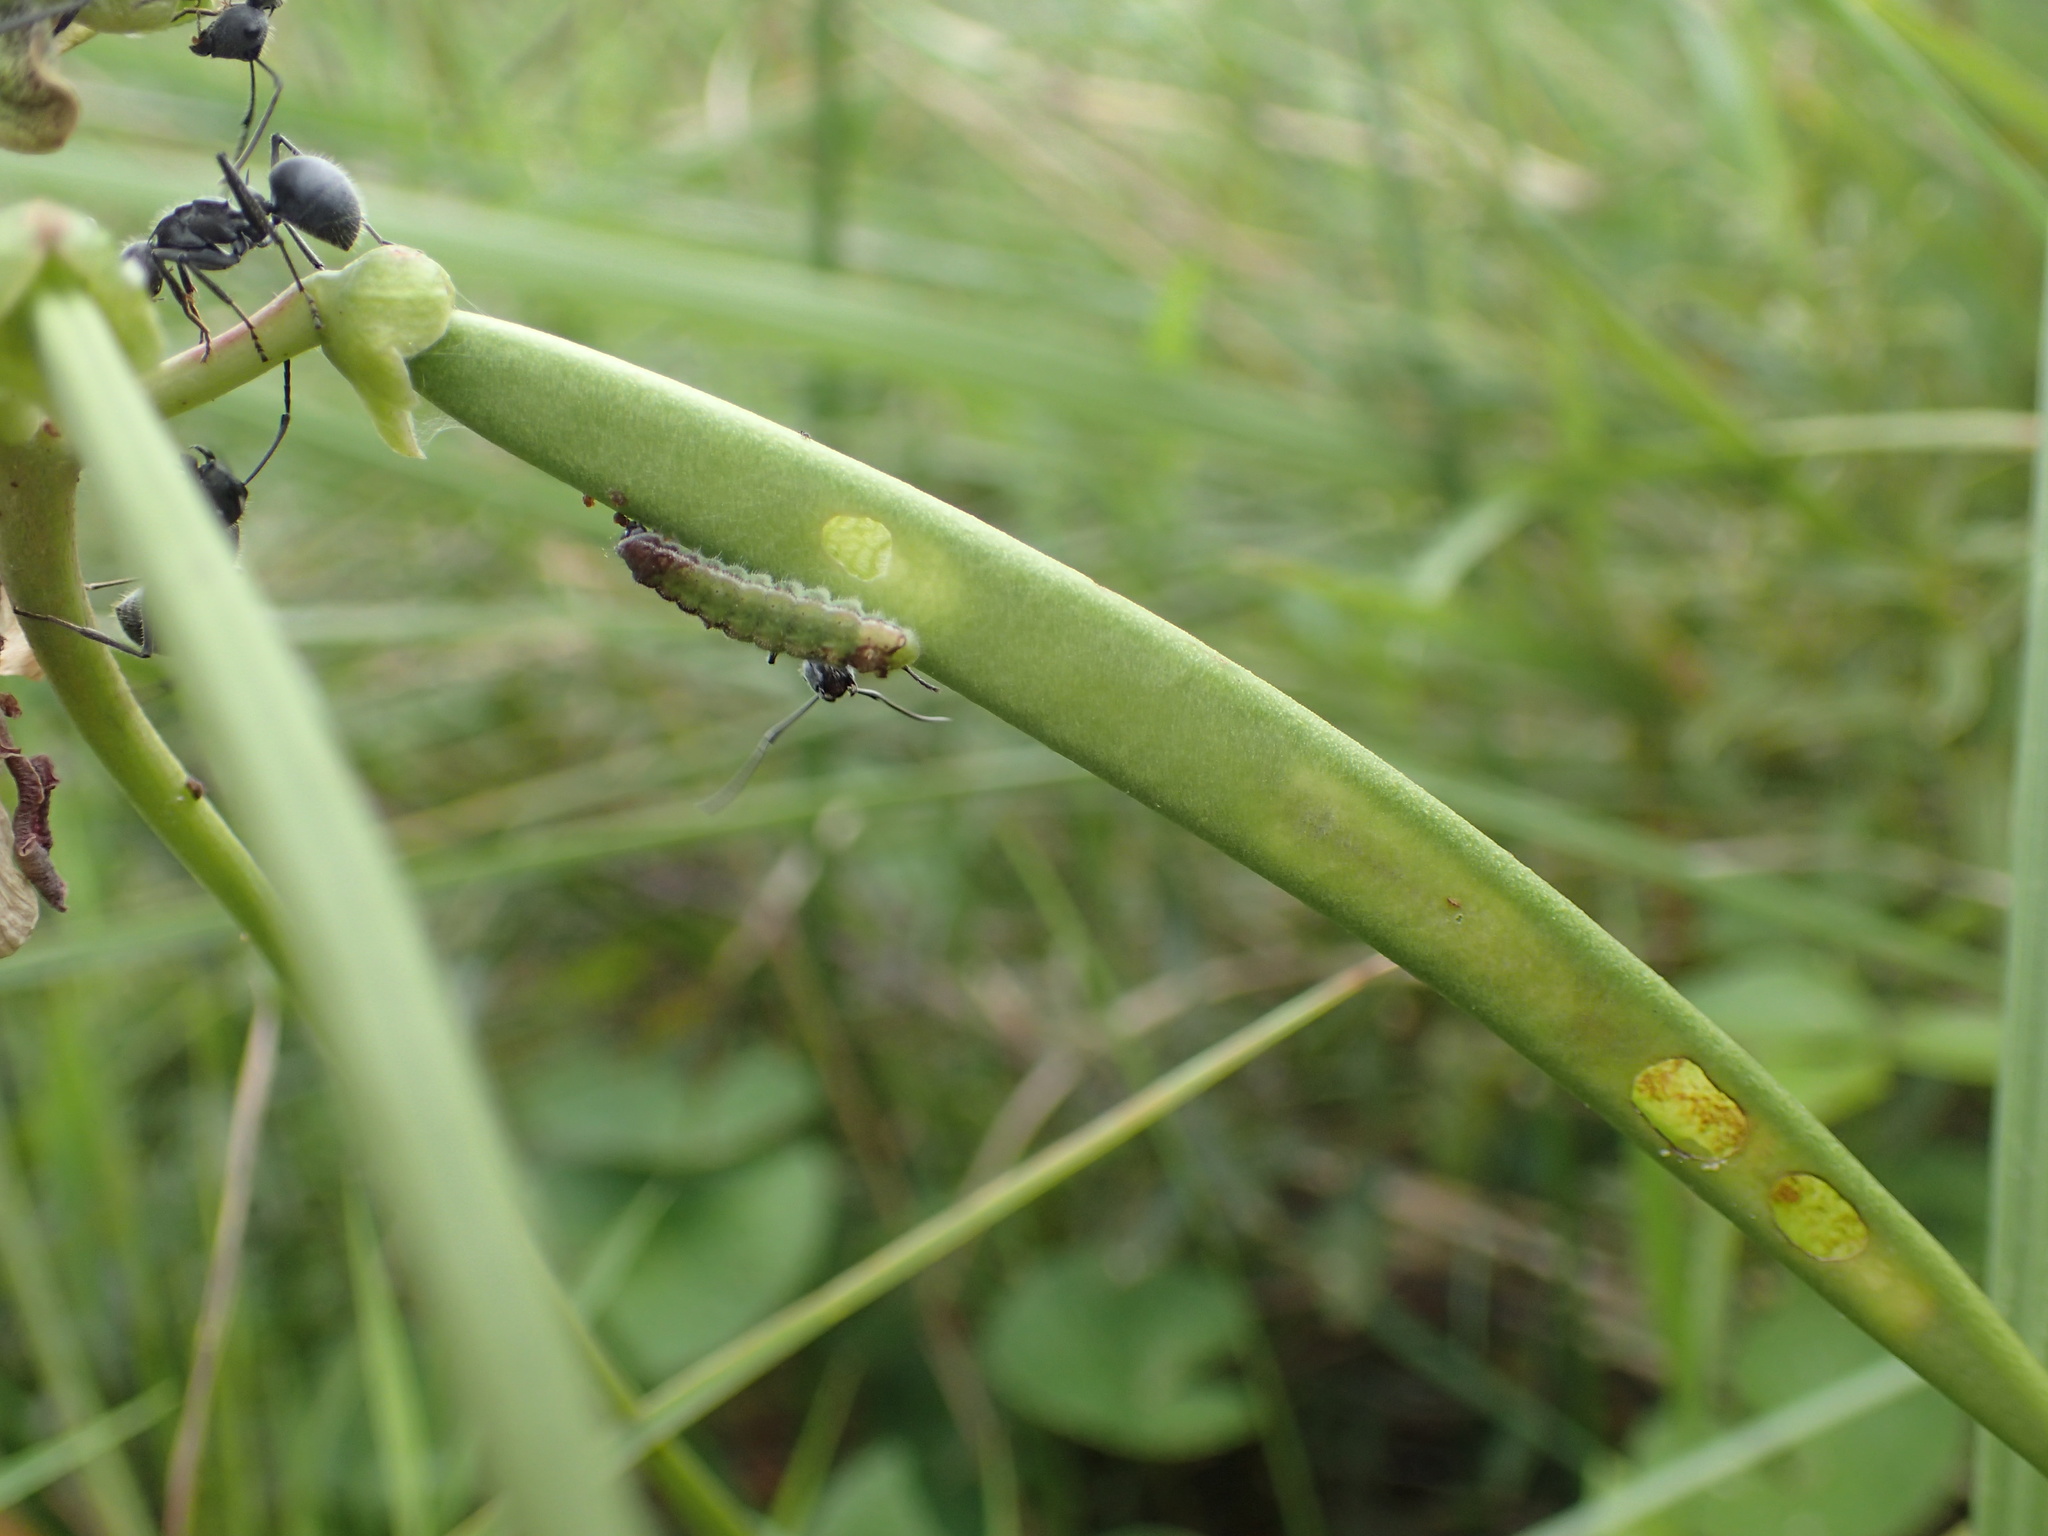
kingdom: Plantae
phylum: Tracheophyta
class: Magnoliopsida
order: Fabales
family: Fabaceae
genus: Sphenostylis
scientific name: Sphenostylis angustifolia
